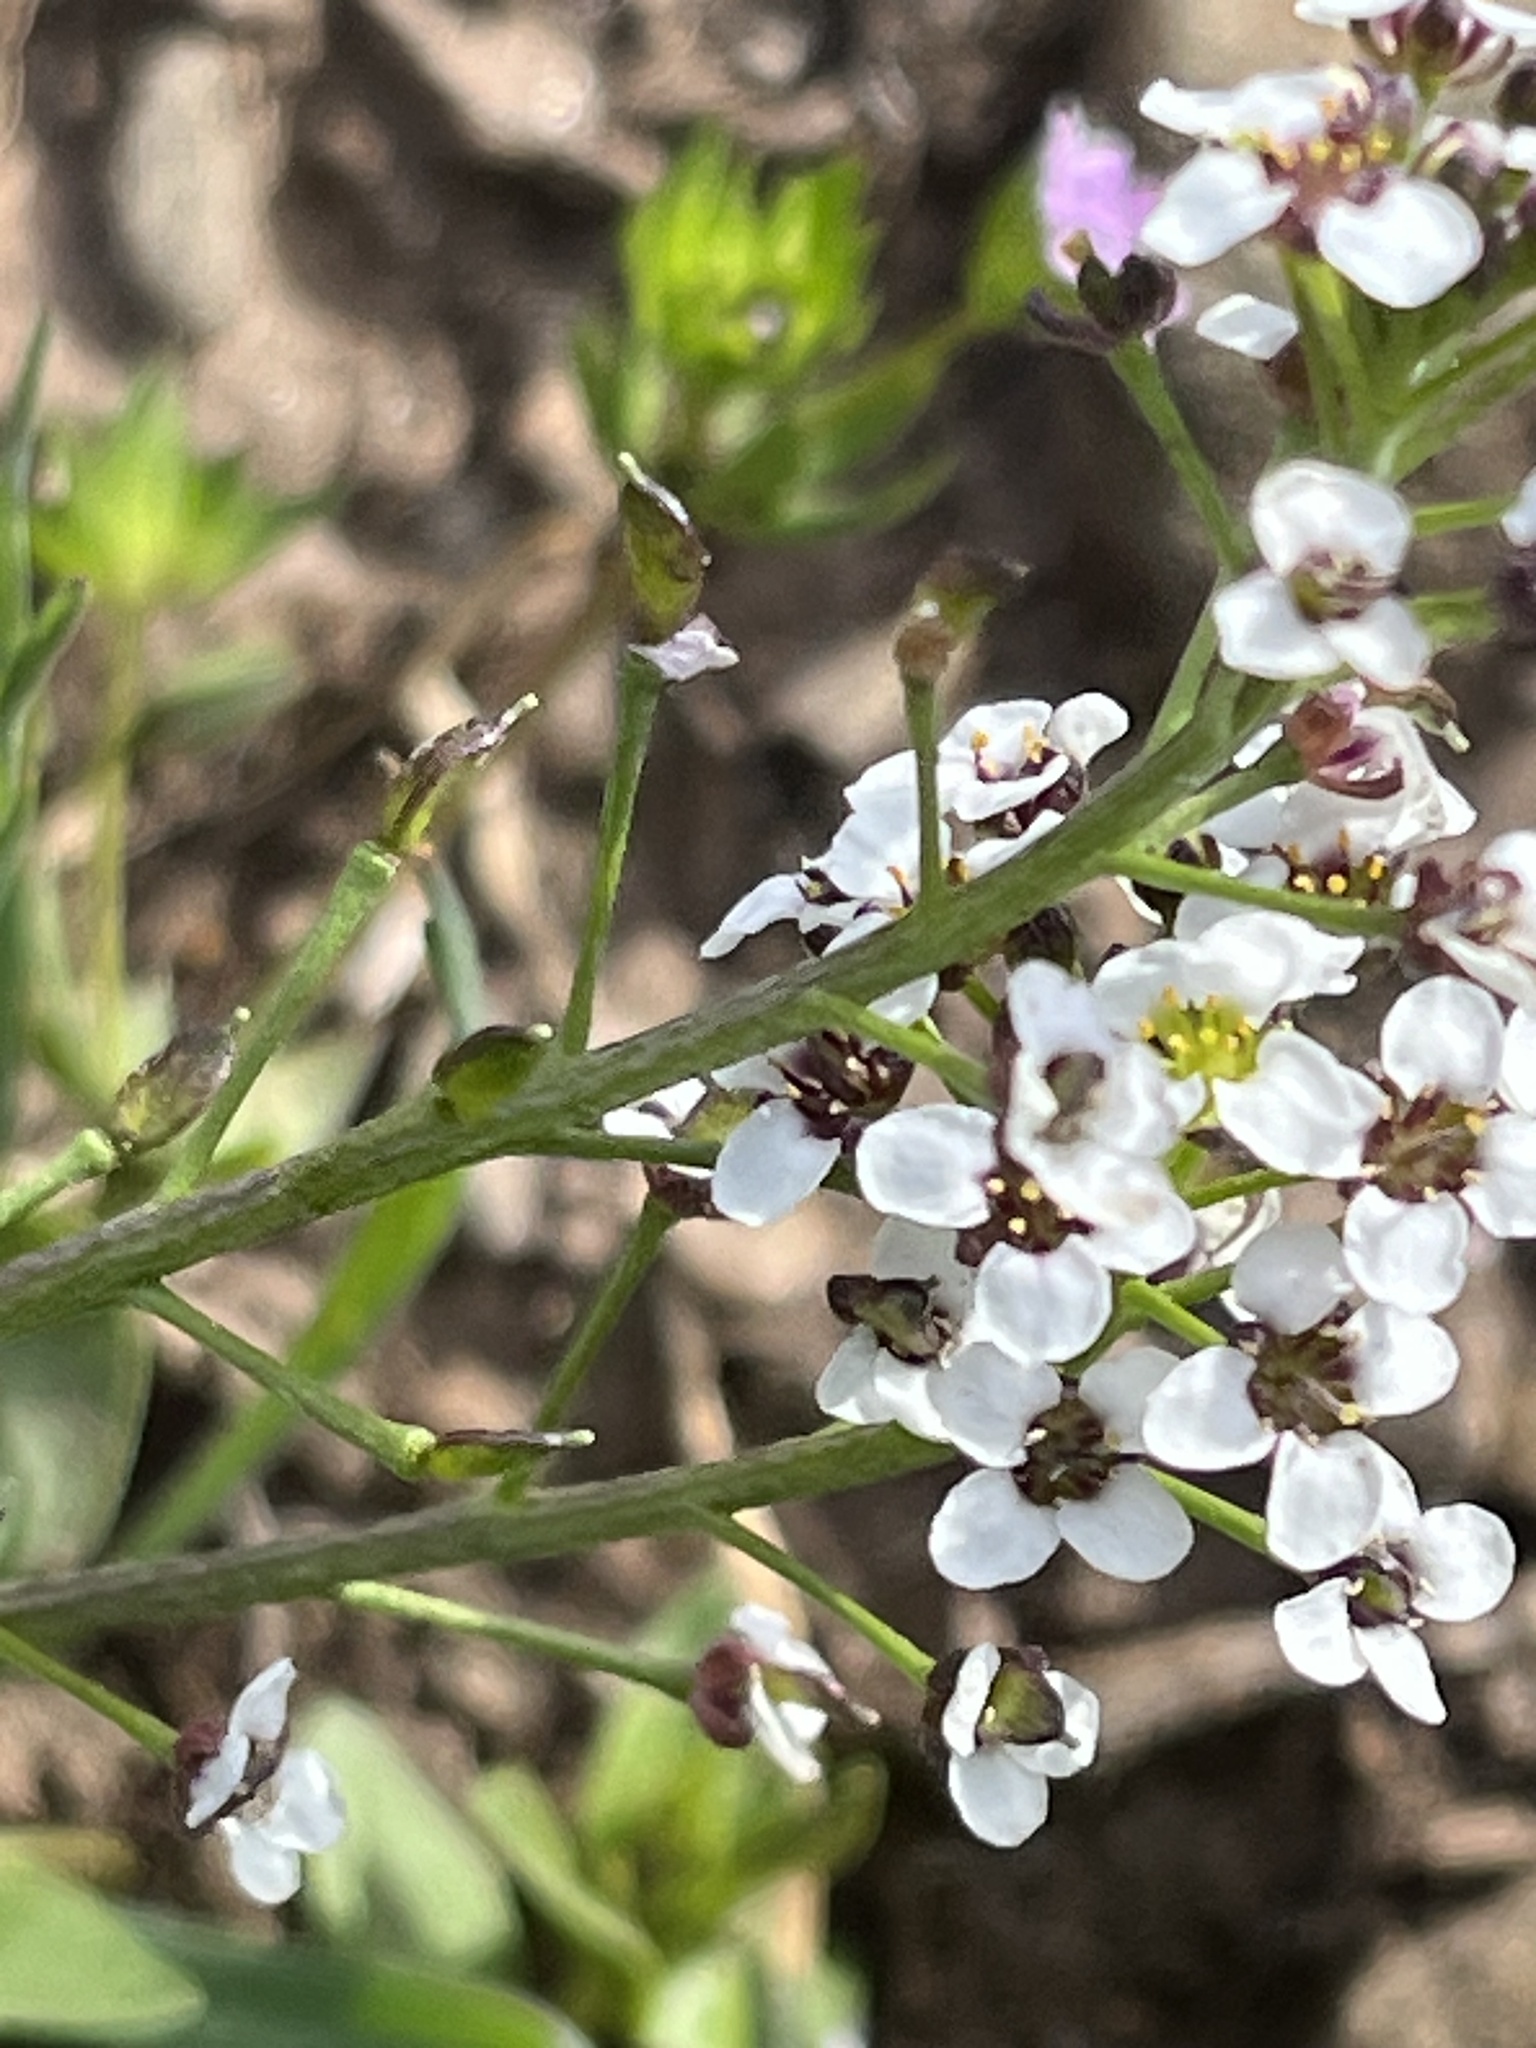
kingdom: Plantae
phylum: Tracheophyta
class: Magnoliopsida
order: Brassicales
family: Brassicaceae
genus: Lobularia
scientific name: Lobularia maritima
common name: Sweet alison
